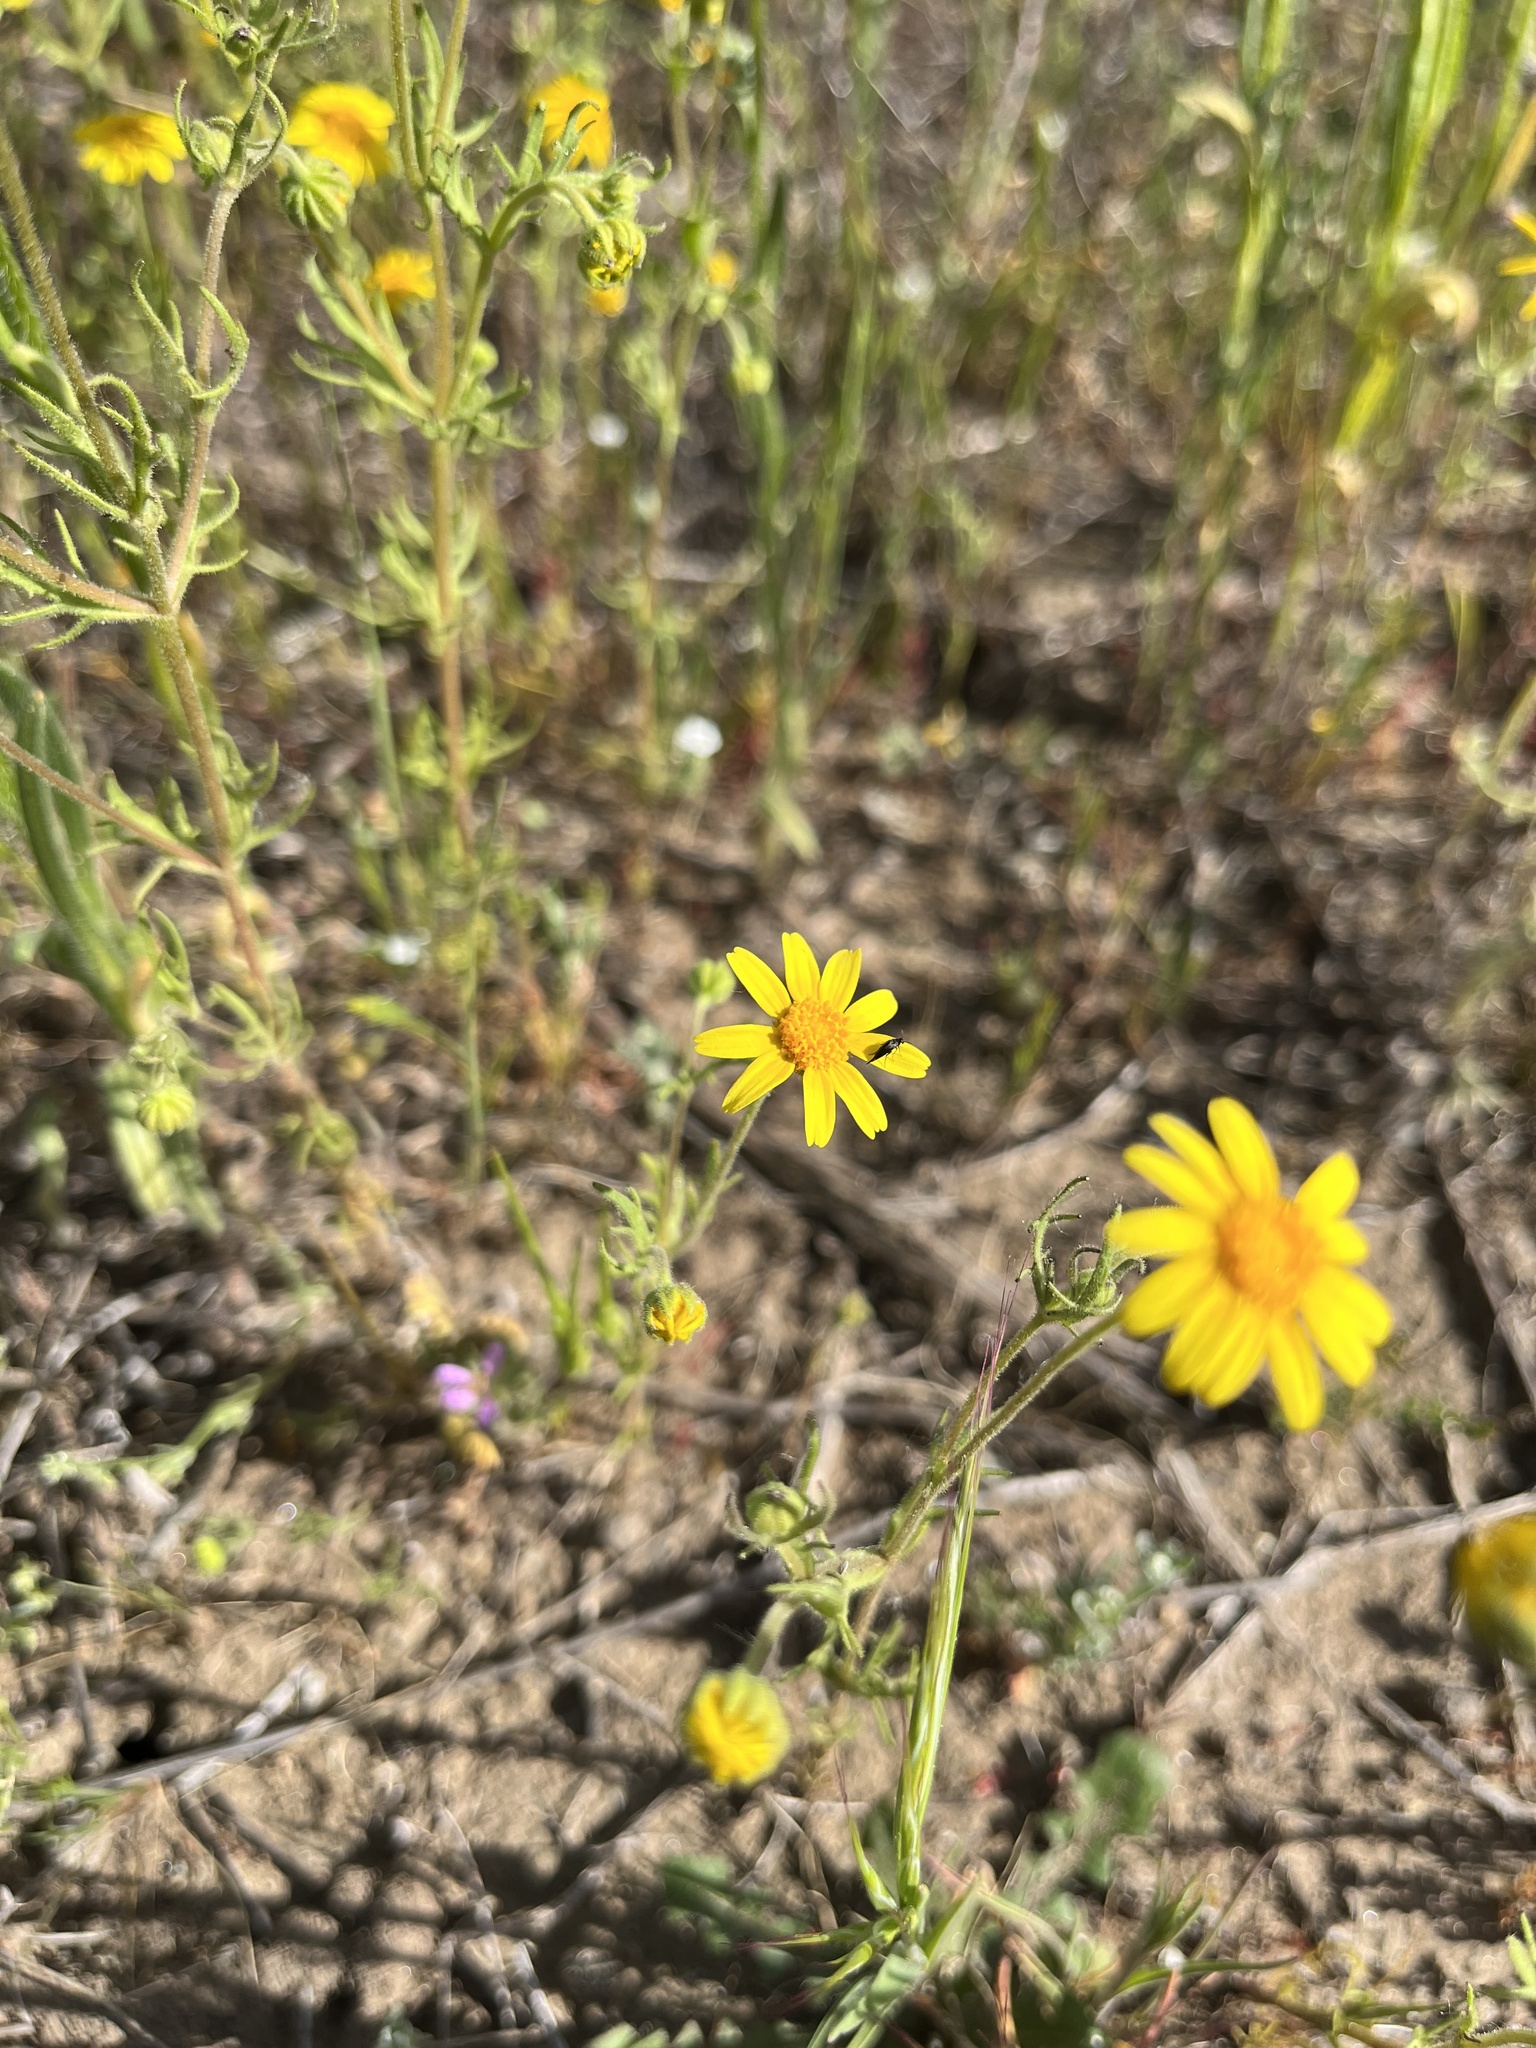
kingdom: Plantae
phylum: Tracheophyta
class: Magnoliopsida
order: Asterales
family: Asteraceae
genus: Lasthenia
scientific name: Lasthenia coronaria
